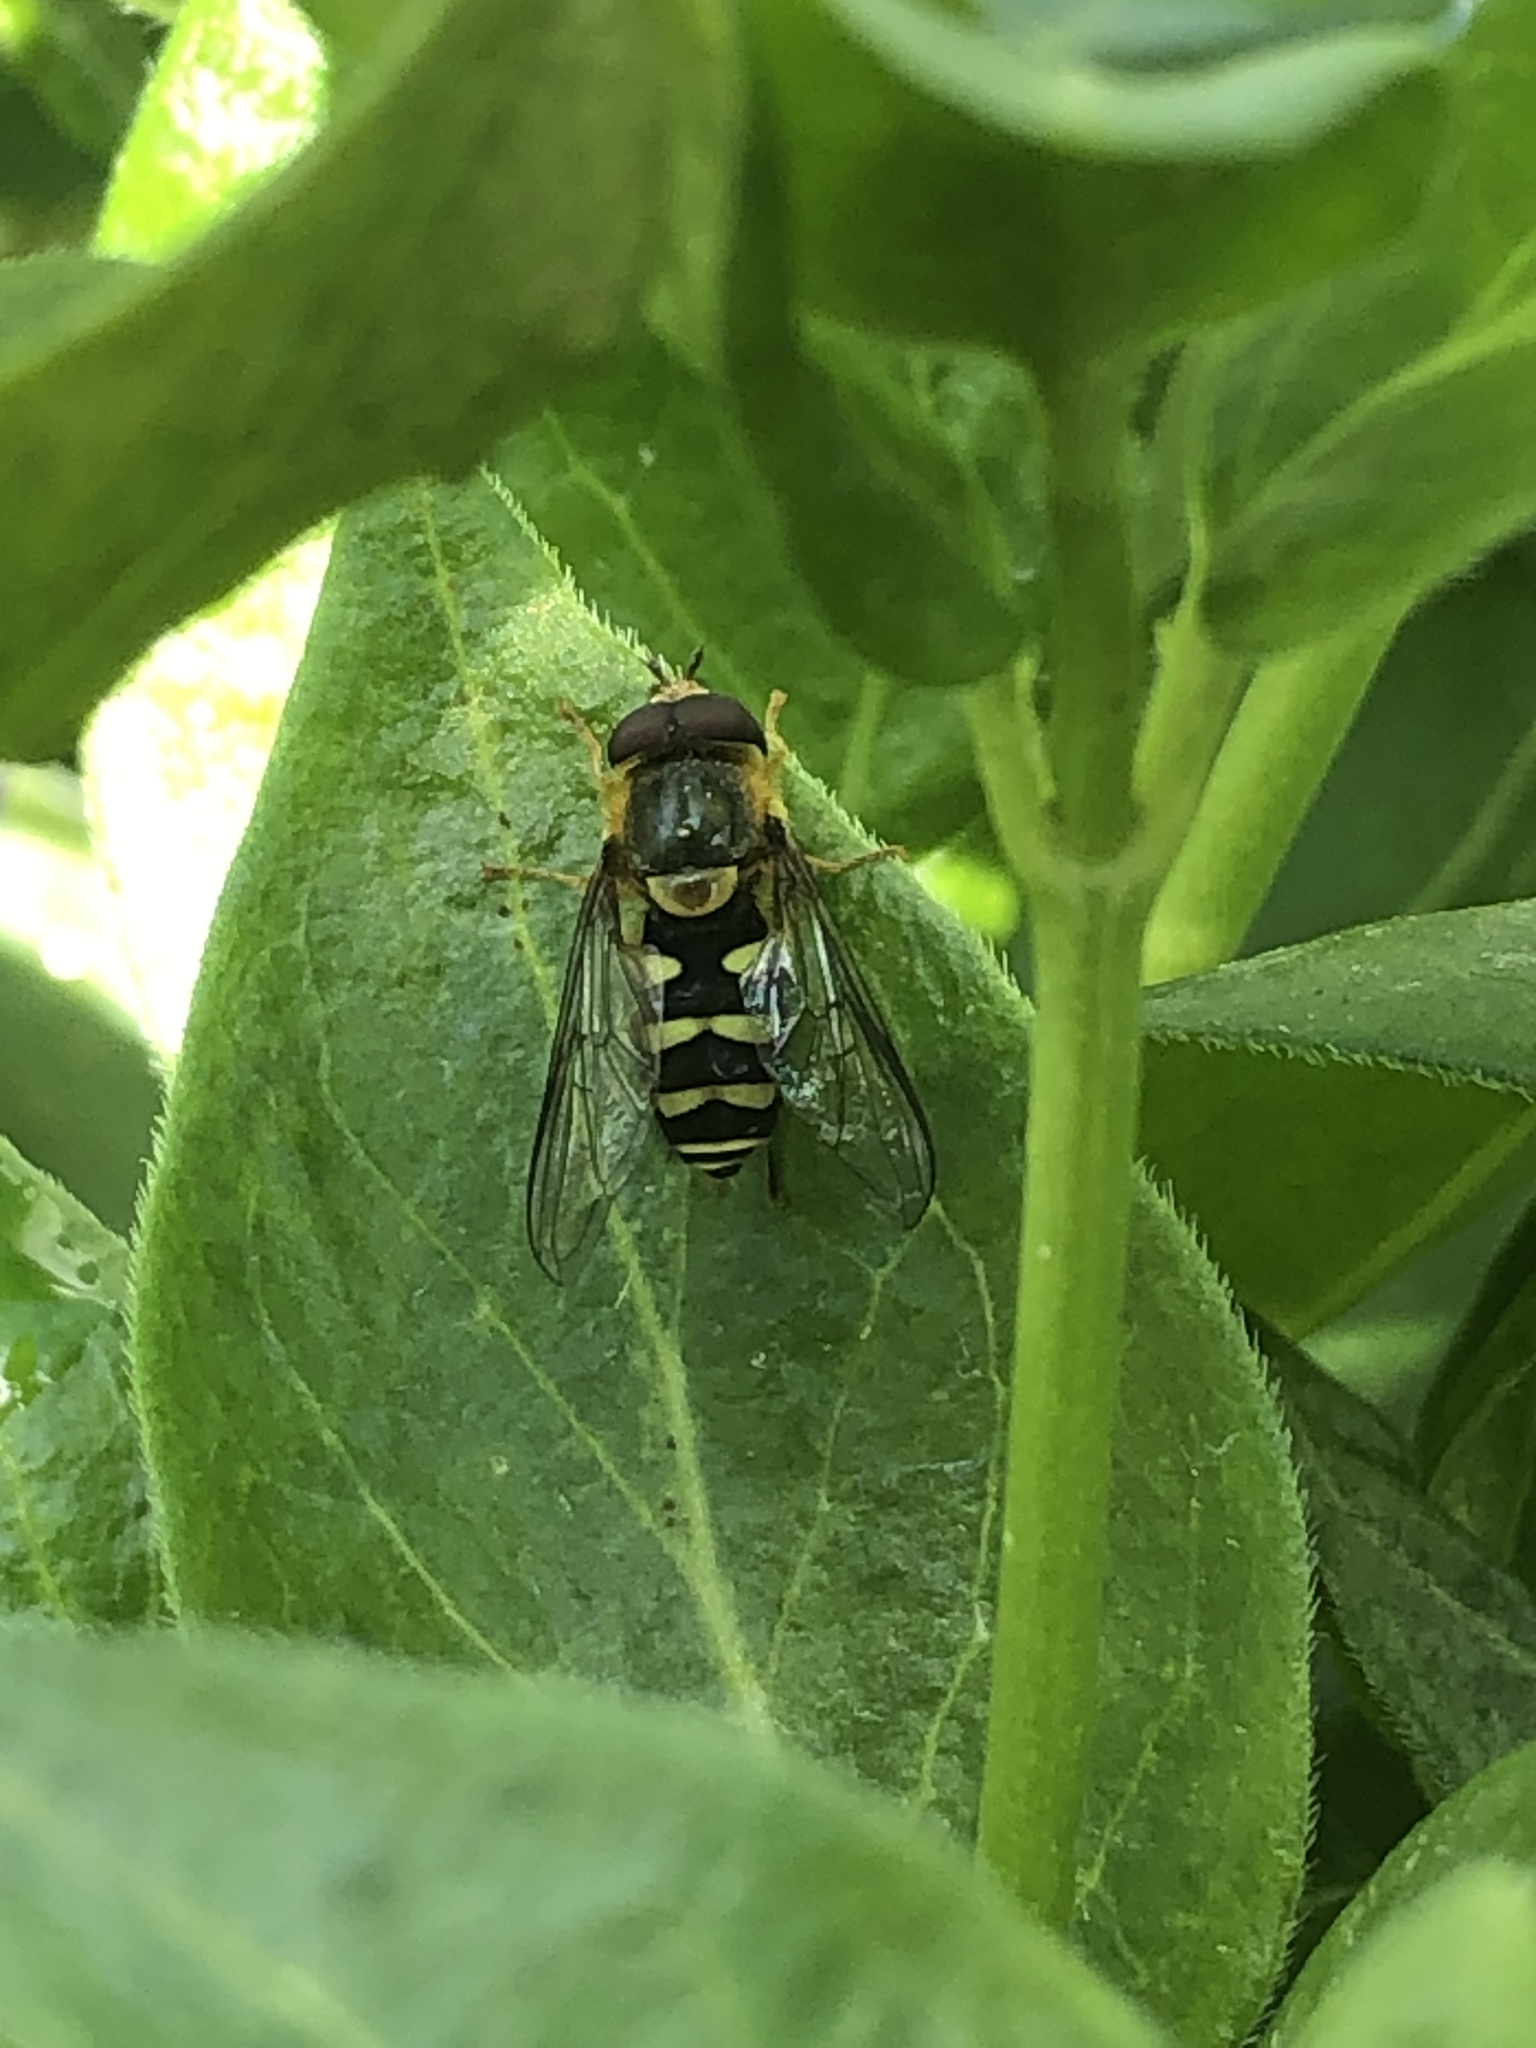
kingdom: Animalia
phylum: Arthropoda
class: Insecta
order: Diptera
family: Syrphidae
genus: Syrphus
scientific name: Syrphus opinator
